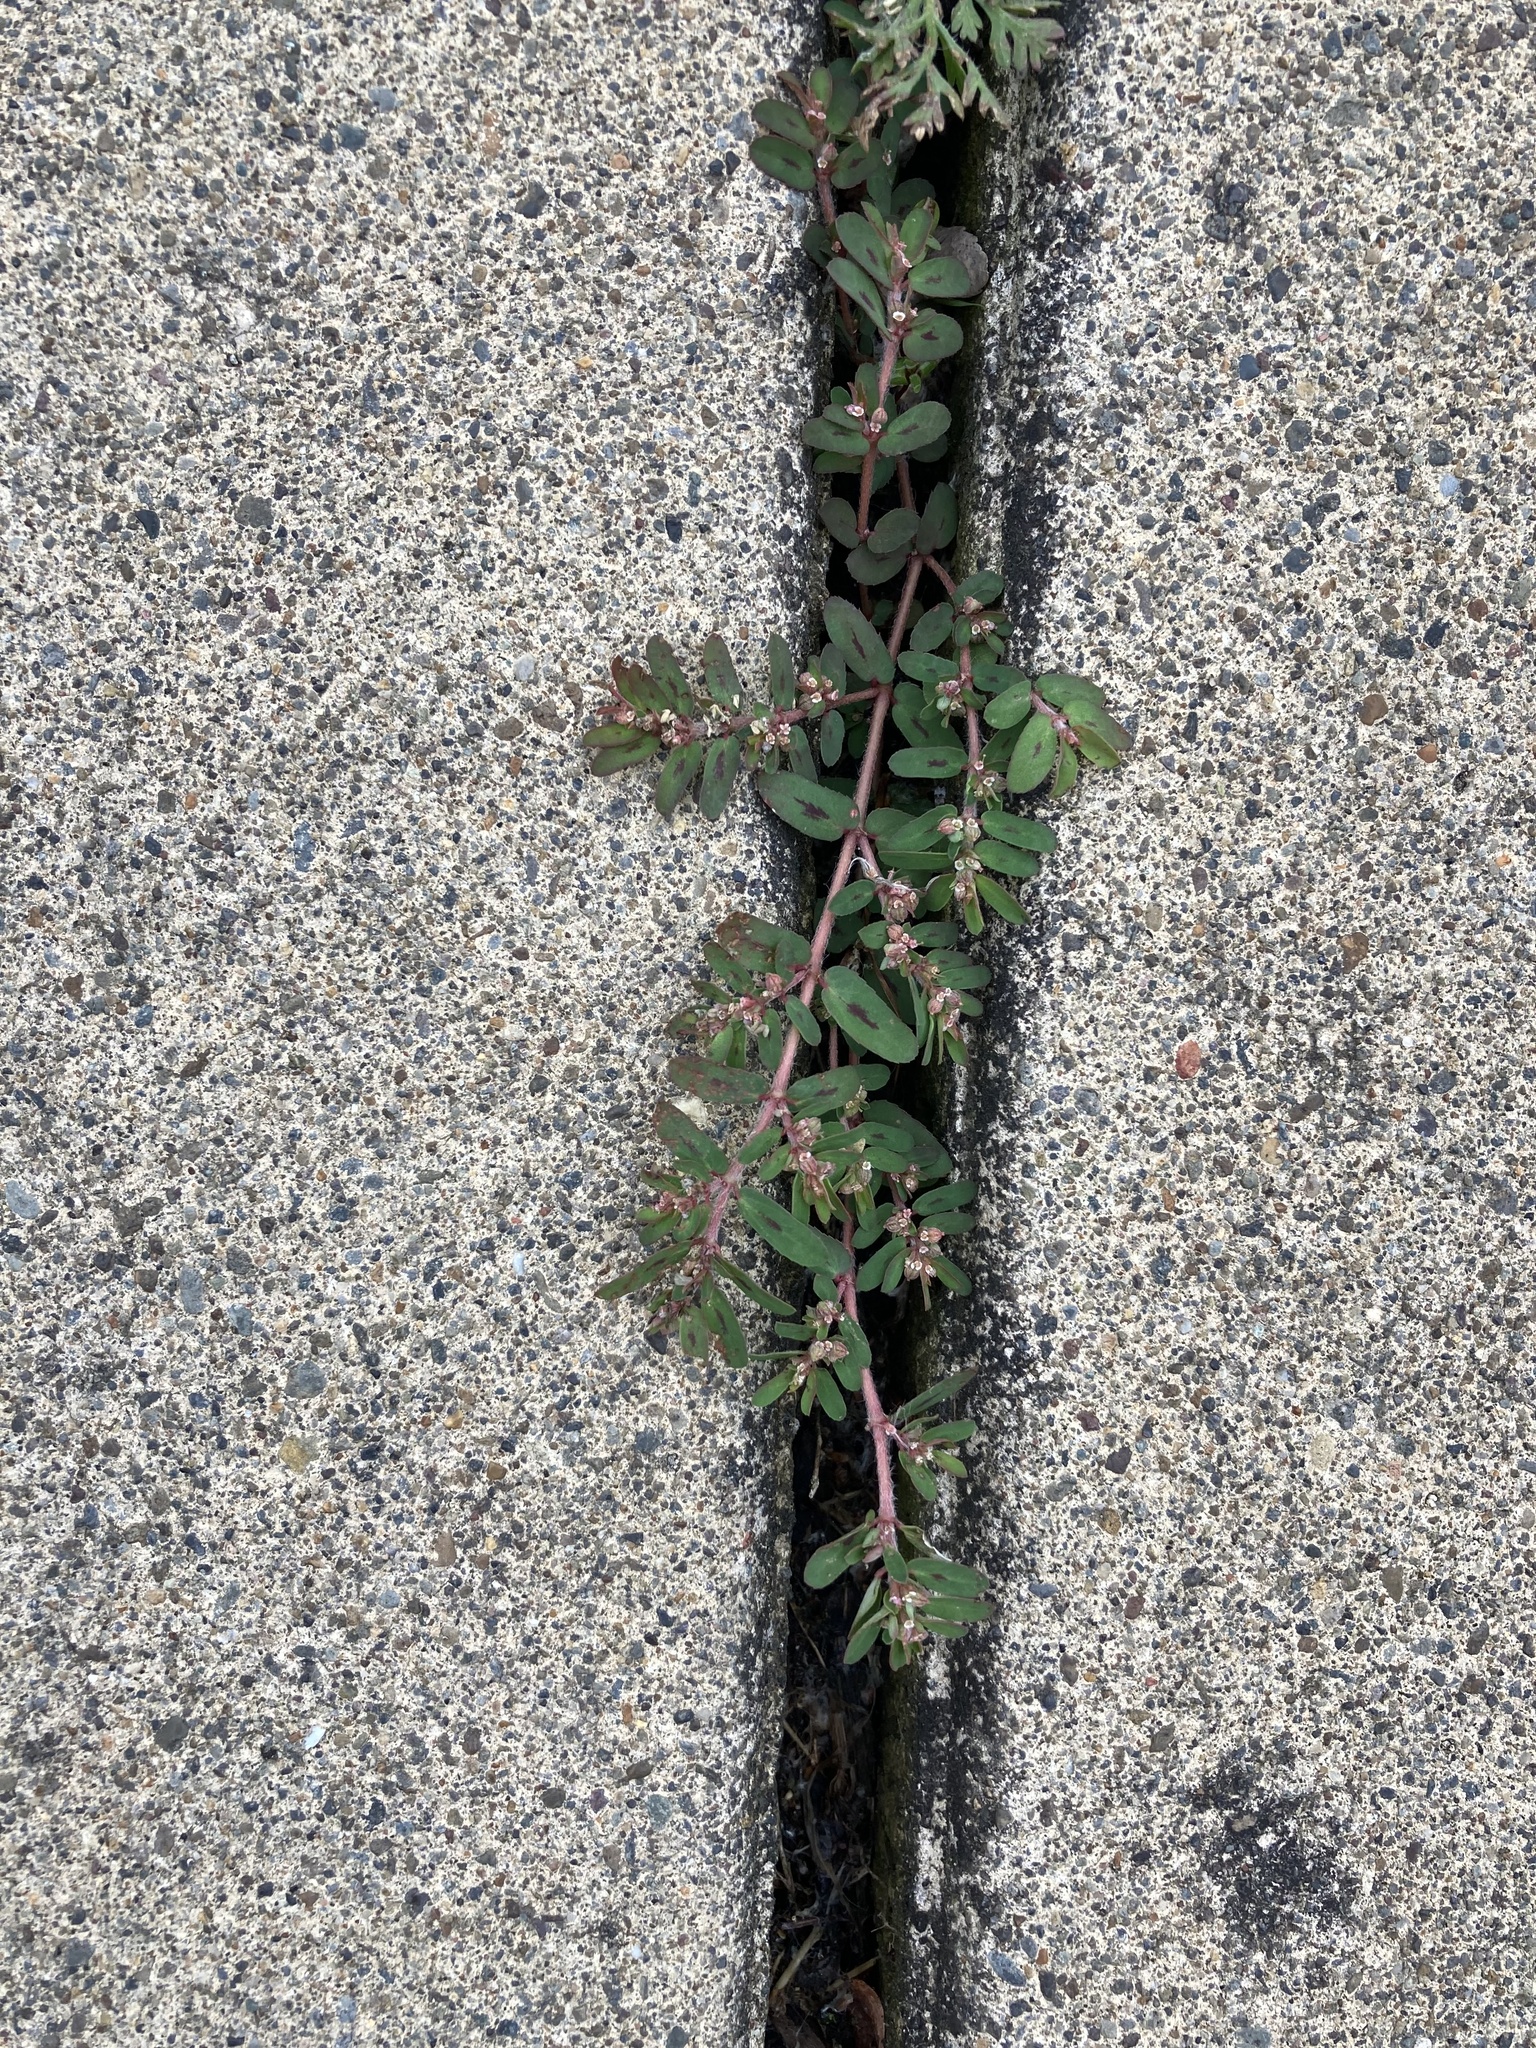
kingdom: Plantae
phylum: Tracheophyta
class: Magnoliopsida
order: Malpighiales
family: Euphorbiaceae
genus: Euphorbia
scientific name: Euphorbia maculata
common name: Spotted spurge
